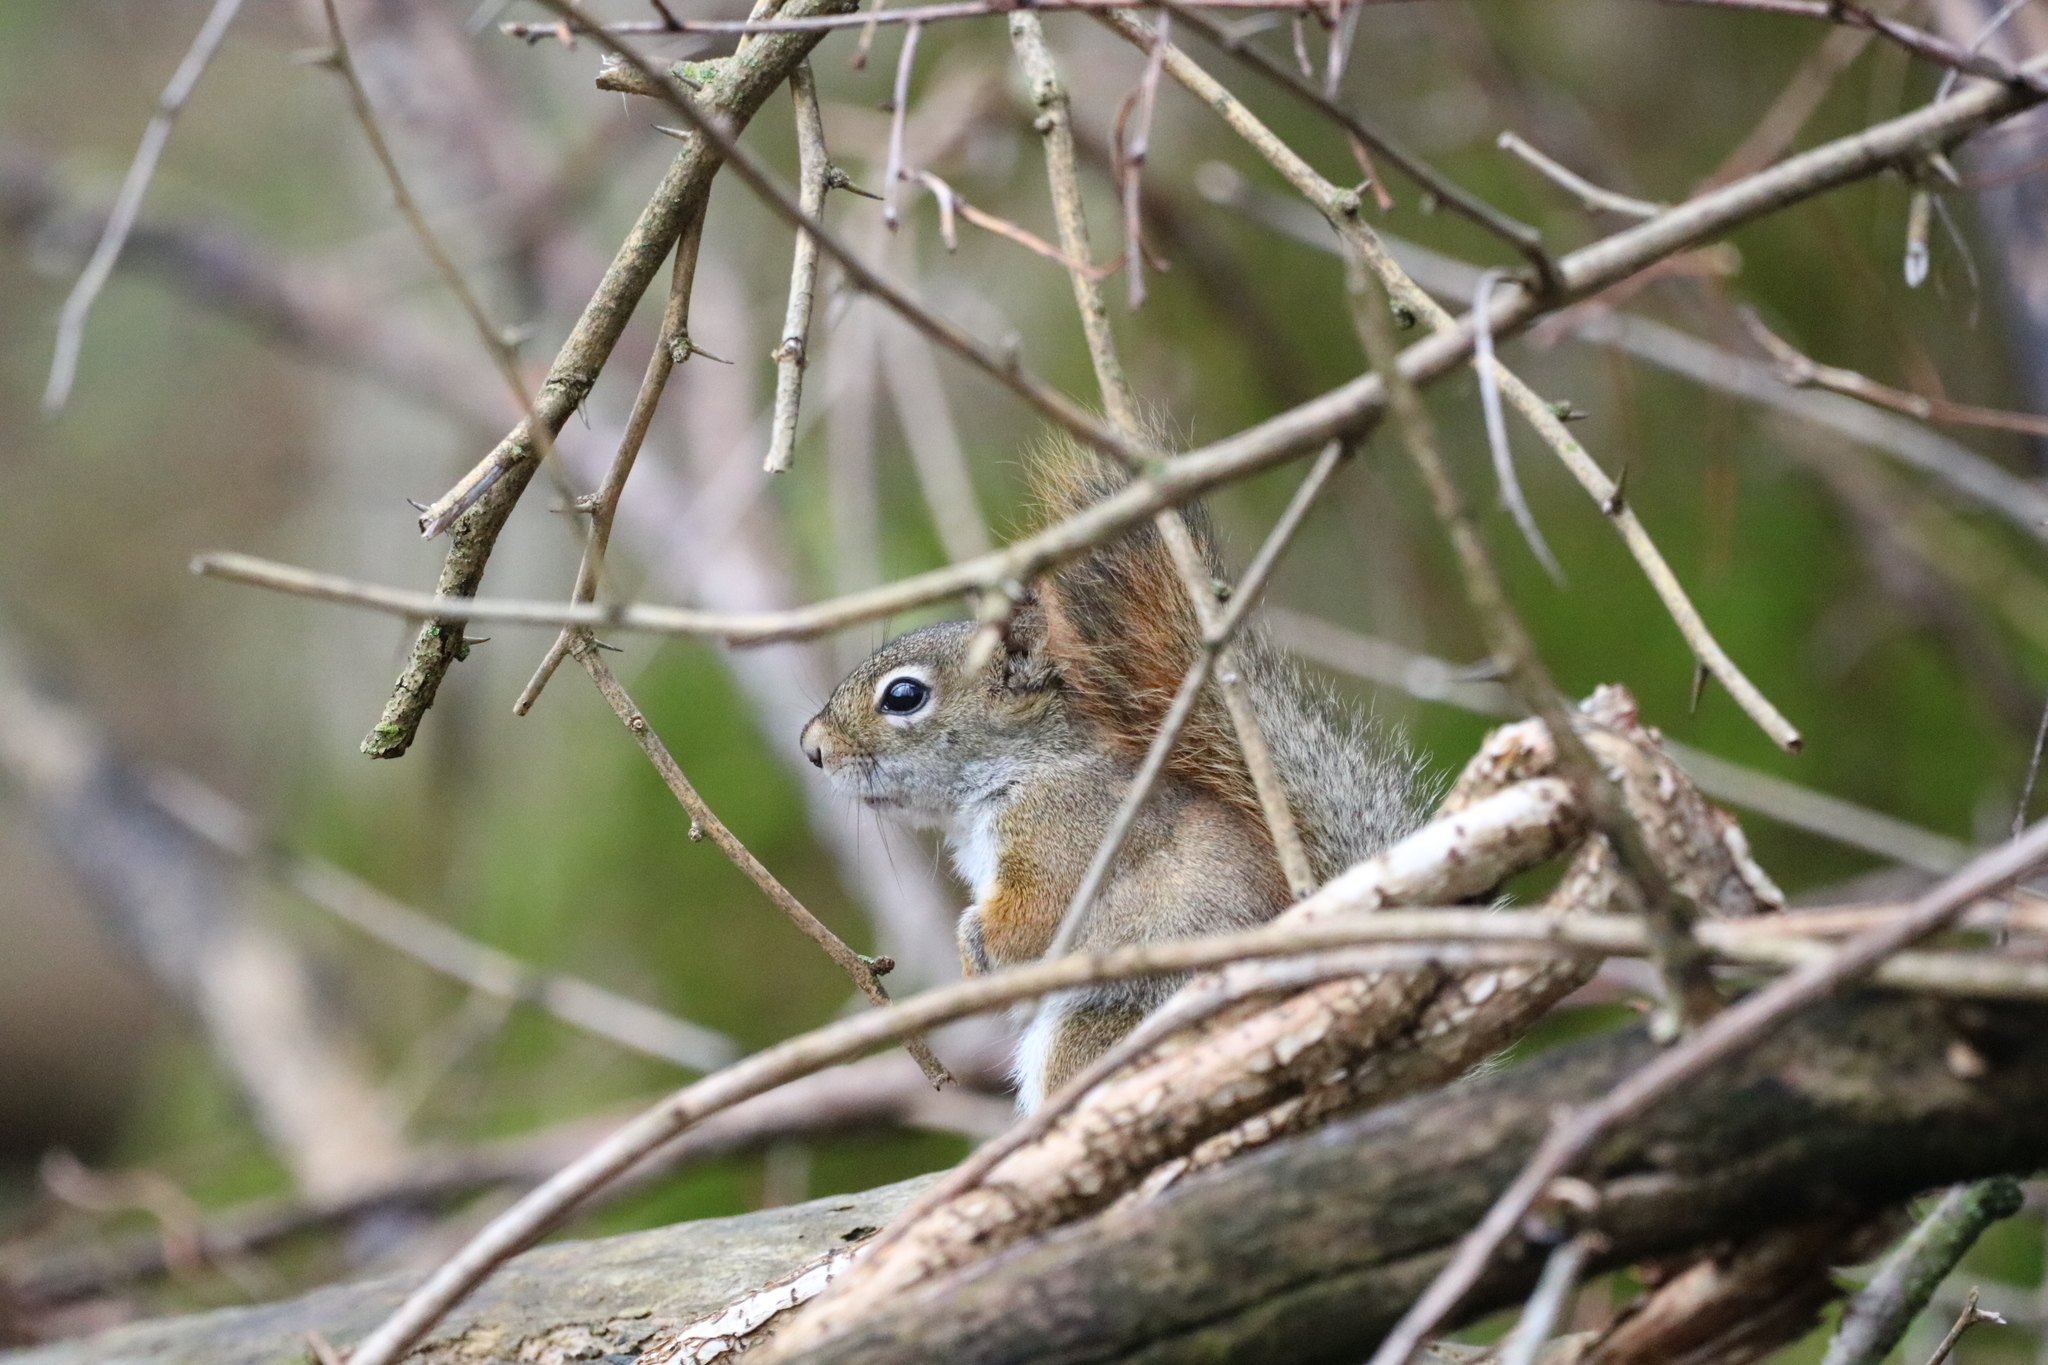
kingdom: Animalia
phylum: Chordata
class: Mammalia
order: Rodentia
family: Sciuridae
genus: Tamiasciurus
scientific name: Tamiasciurus hudsonicus
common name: Red squirrel
